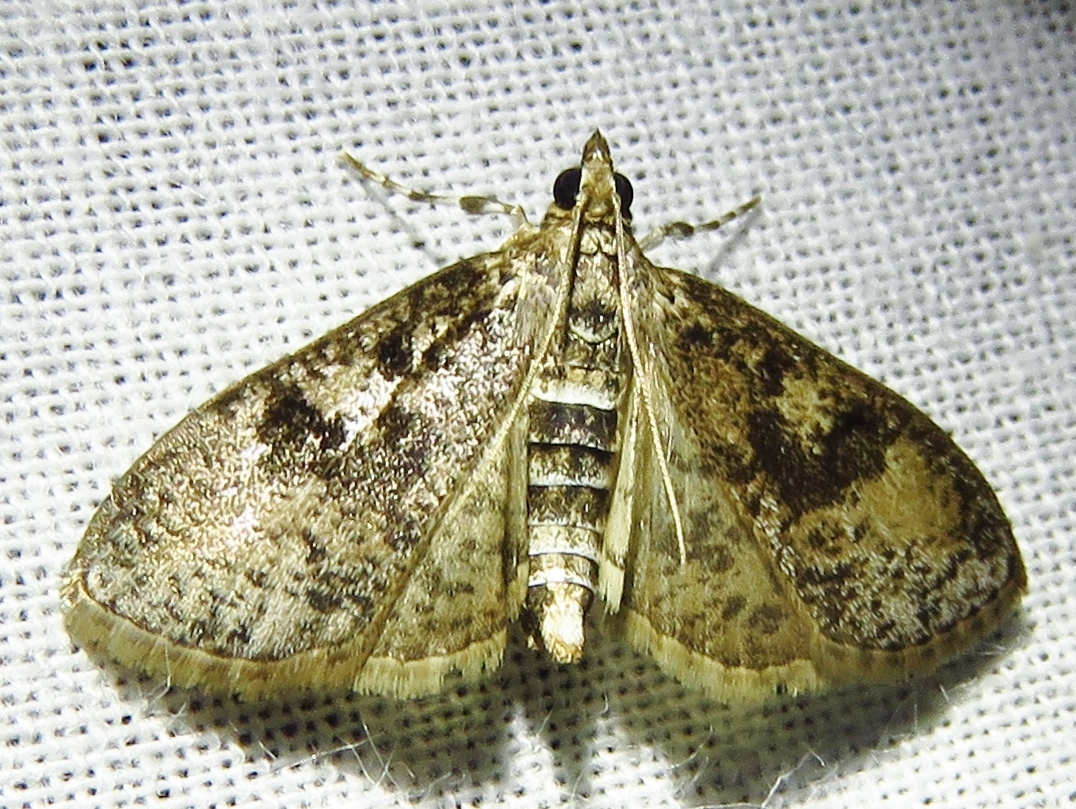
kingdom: Animalia
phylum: Arthropoda
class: Insecta
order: Lepidoptera
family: Crambidae
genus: Palpita
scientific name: Palpita magniferalis
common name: Splendid palpita moth
